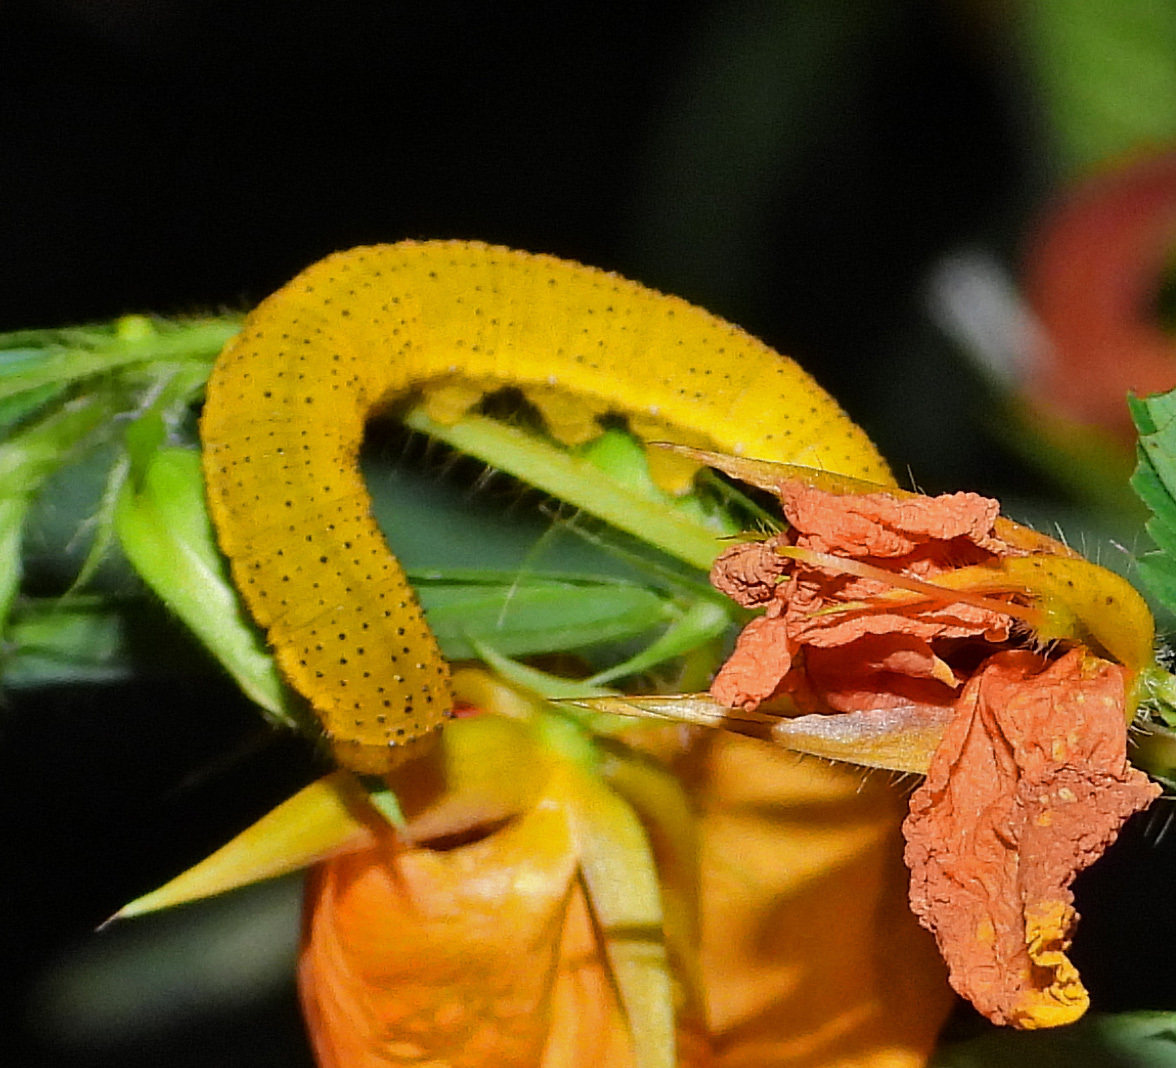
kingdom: Animalia
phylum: Arthropoda
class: Insecta
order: Lepidoptera
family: Pieridae
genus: Phoebis
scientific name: Phoebis sennae
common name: Cloudless sulphur
